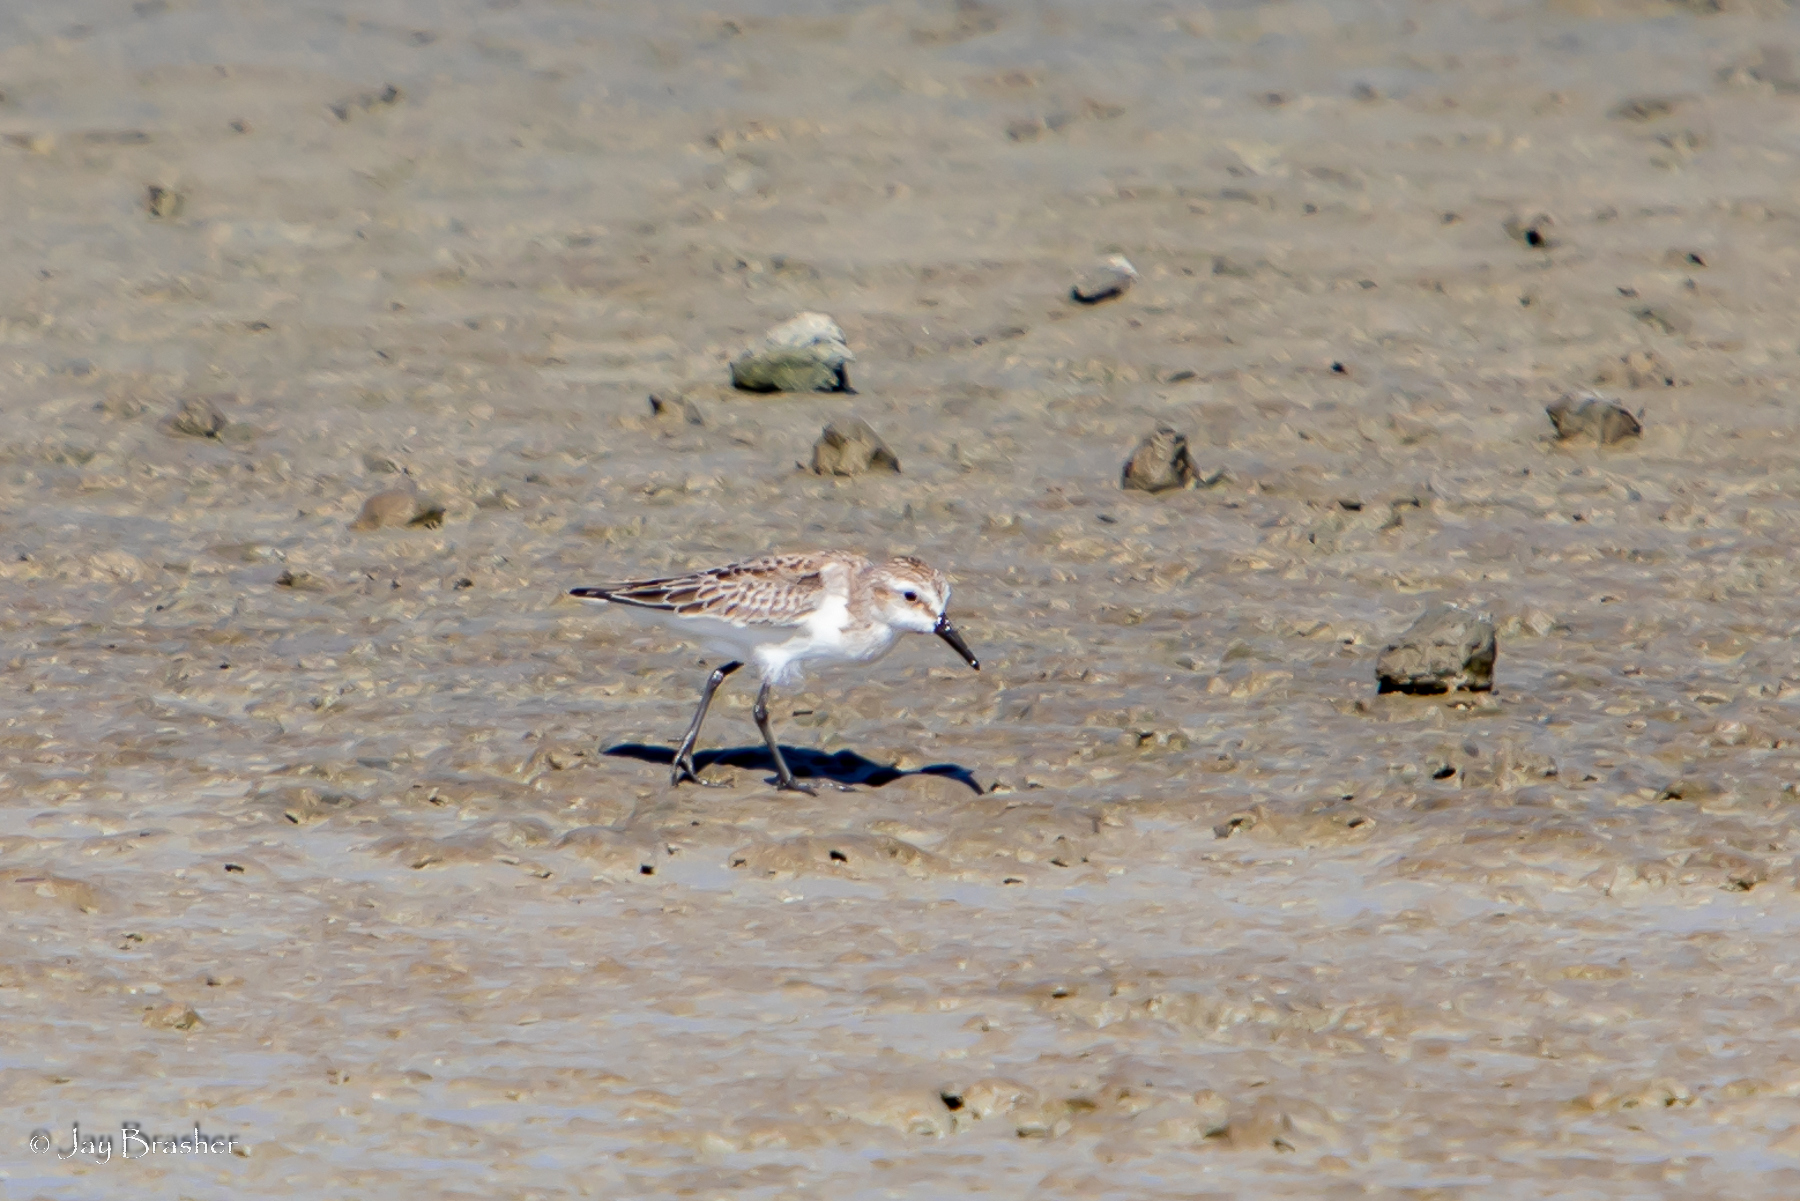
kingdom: Animalia
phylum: Chordata
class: Aves
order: Charadriiformes
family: Scolopacidae
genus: Calidris
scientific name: Calidris pusilla
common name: Semipalmated sandpiper
